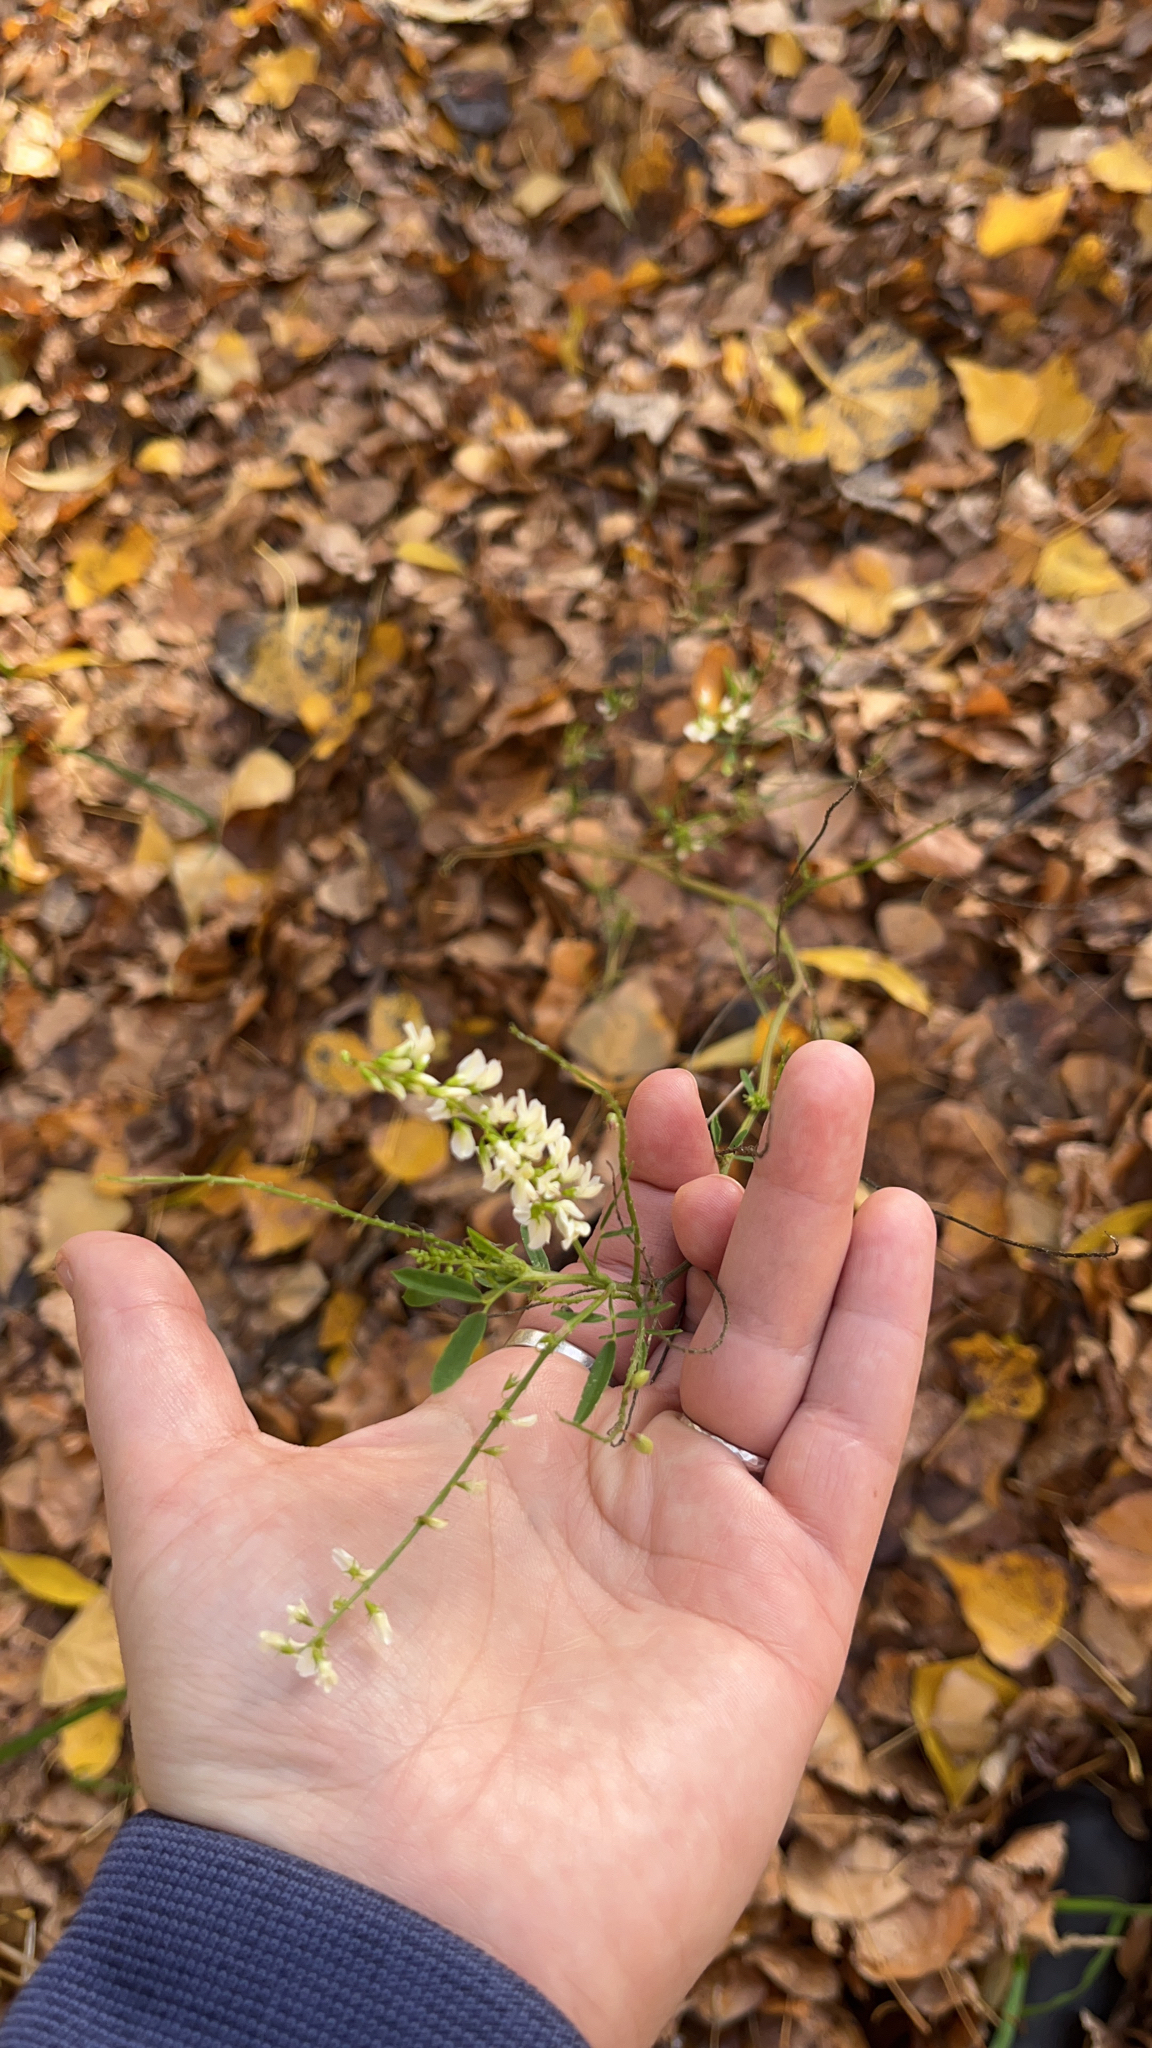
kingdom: Plantae
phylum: Tracheophyta
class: Magnoliopsida
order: Fabales
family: Fabaceae
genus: Melilotus
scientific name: Melilotus albus
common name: White melilot
